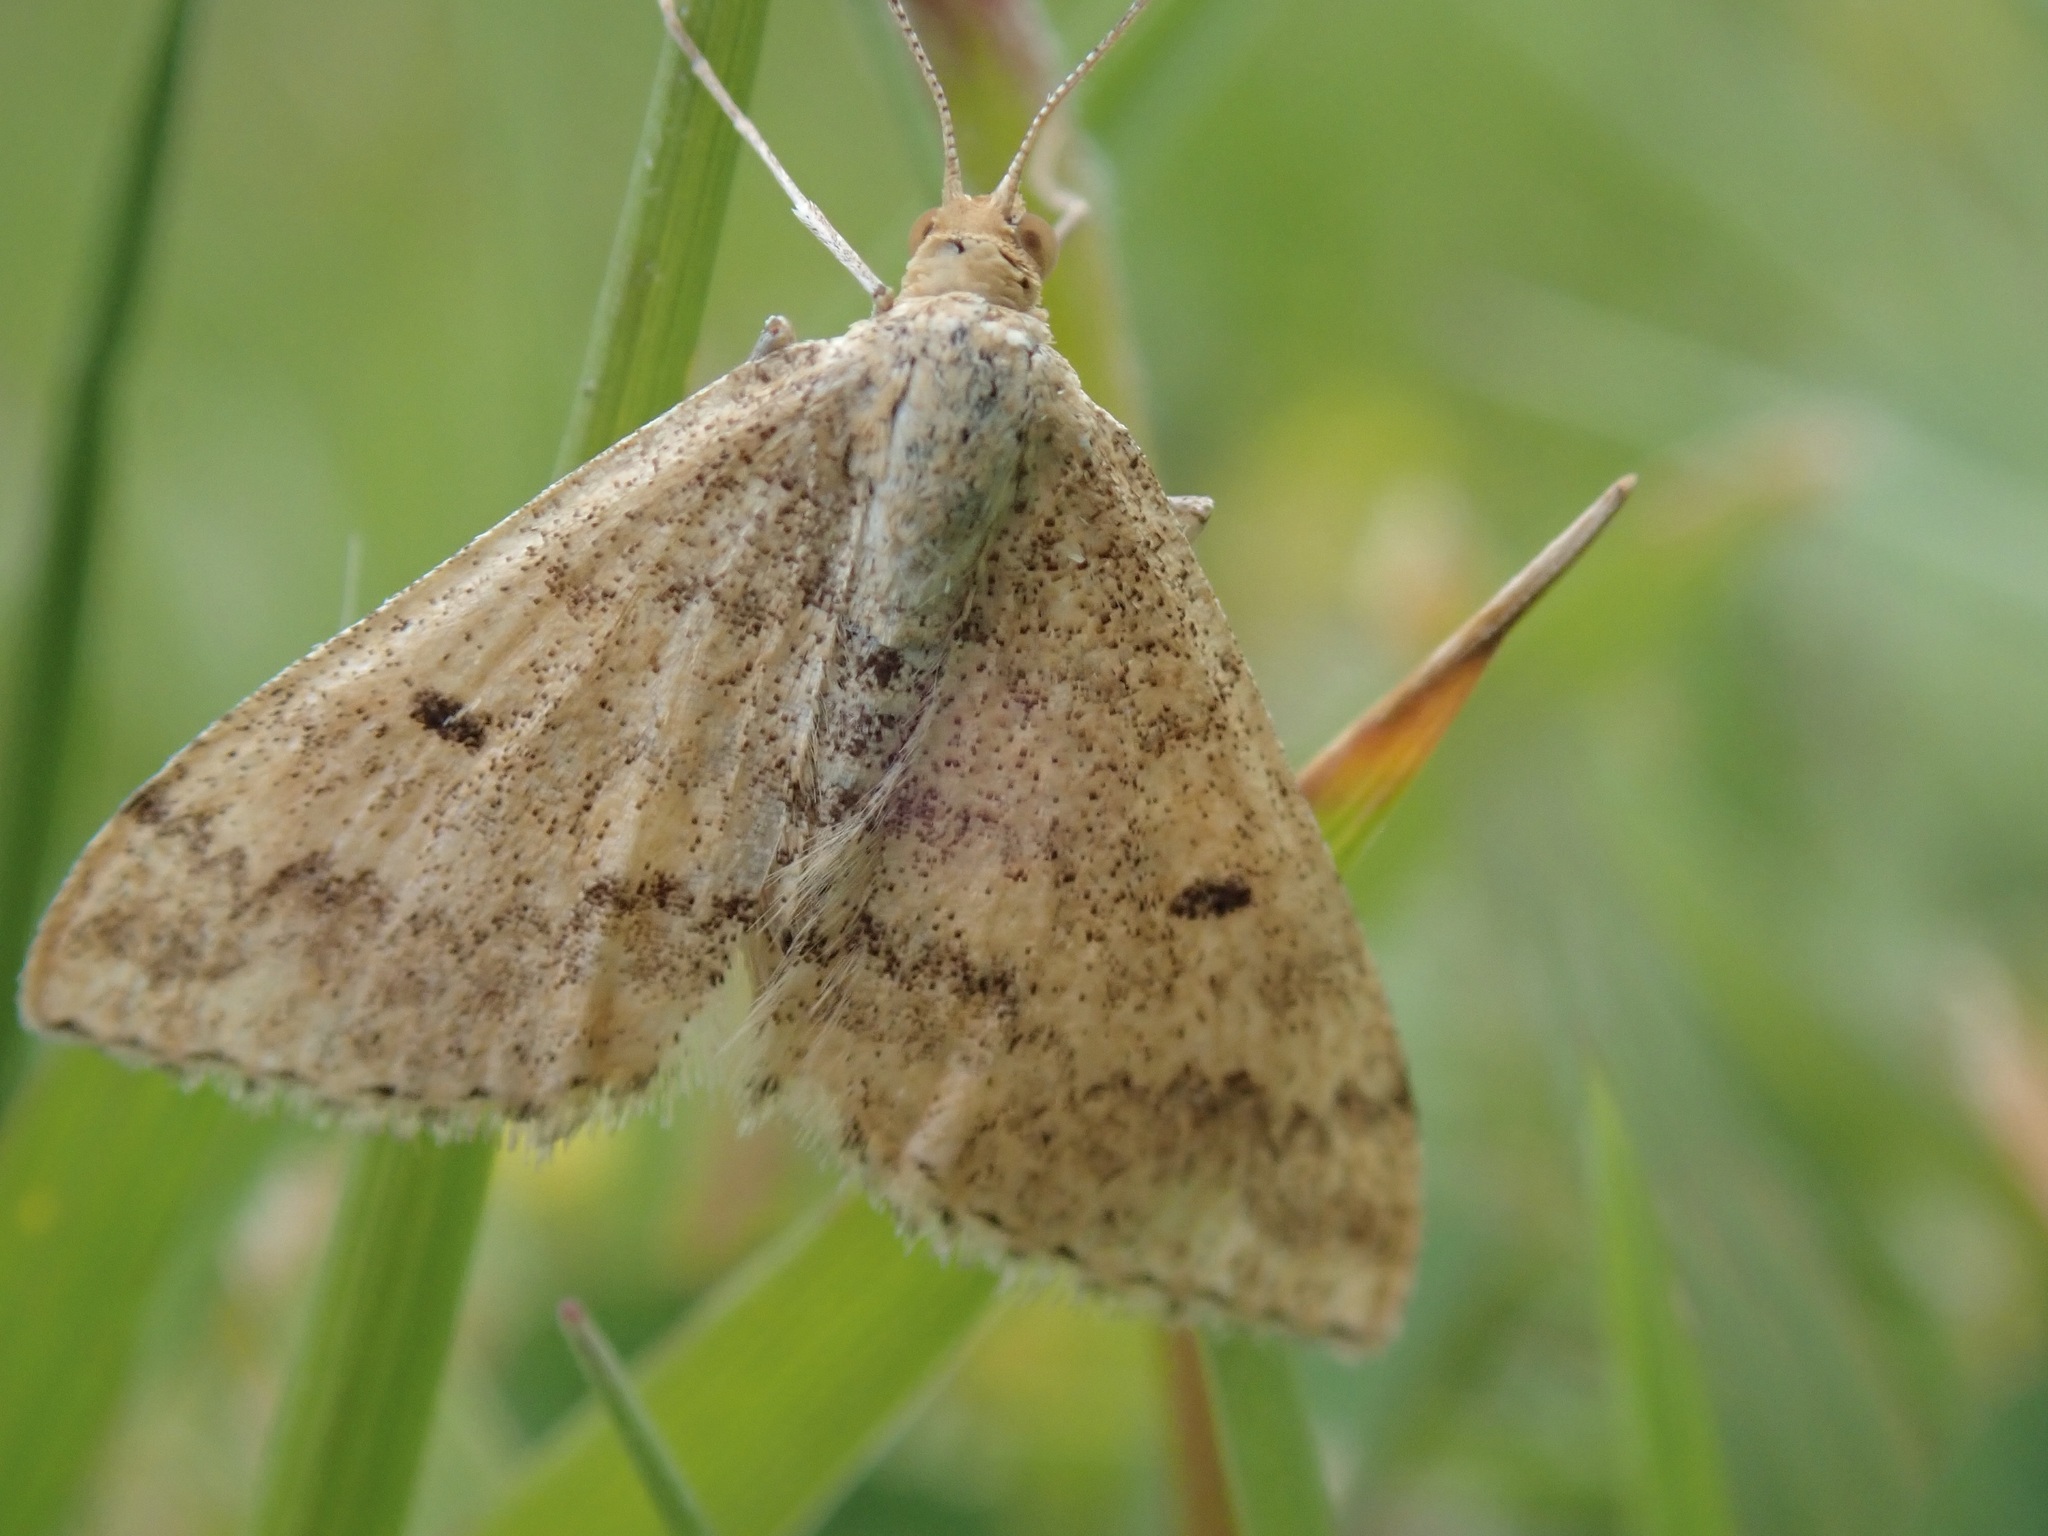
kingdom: Animalia
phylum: Arthropoda
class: Insecta
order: Lepidoptera
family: Geometridae
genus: Scopula
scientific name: Scopula rubraria
